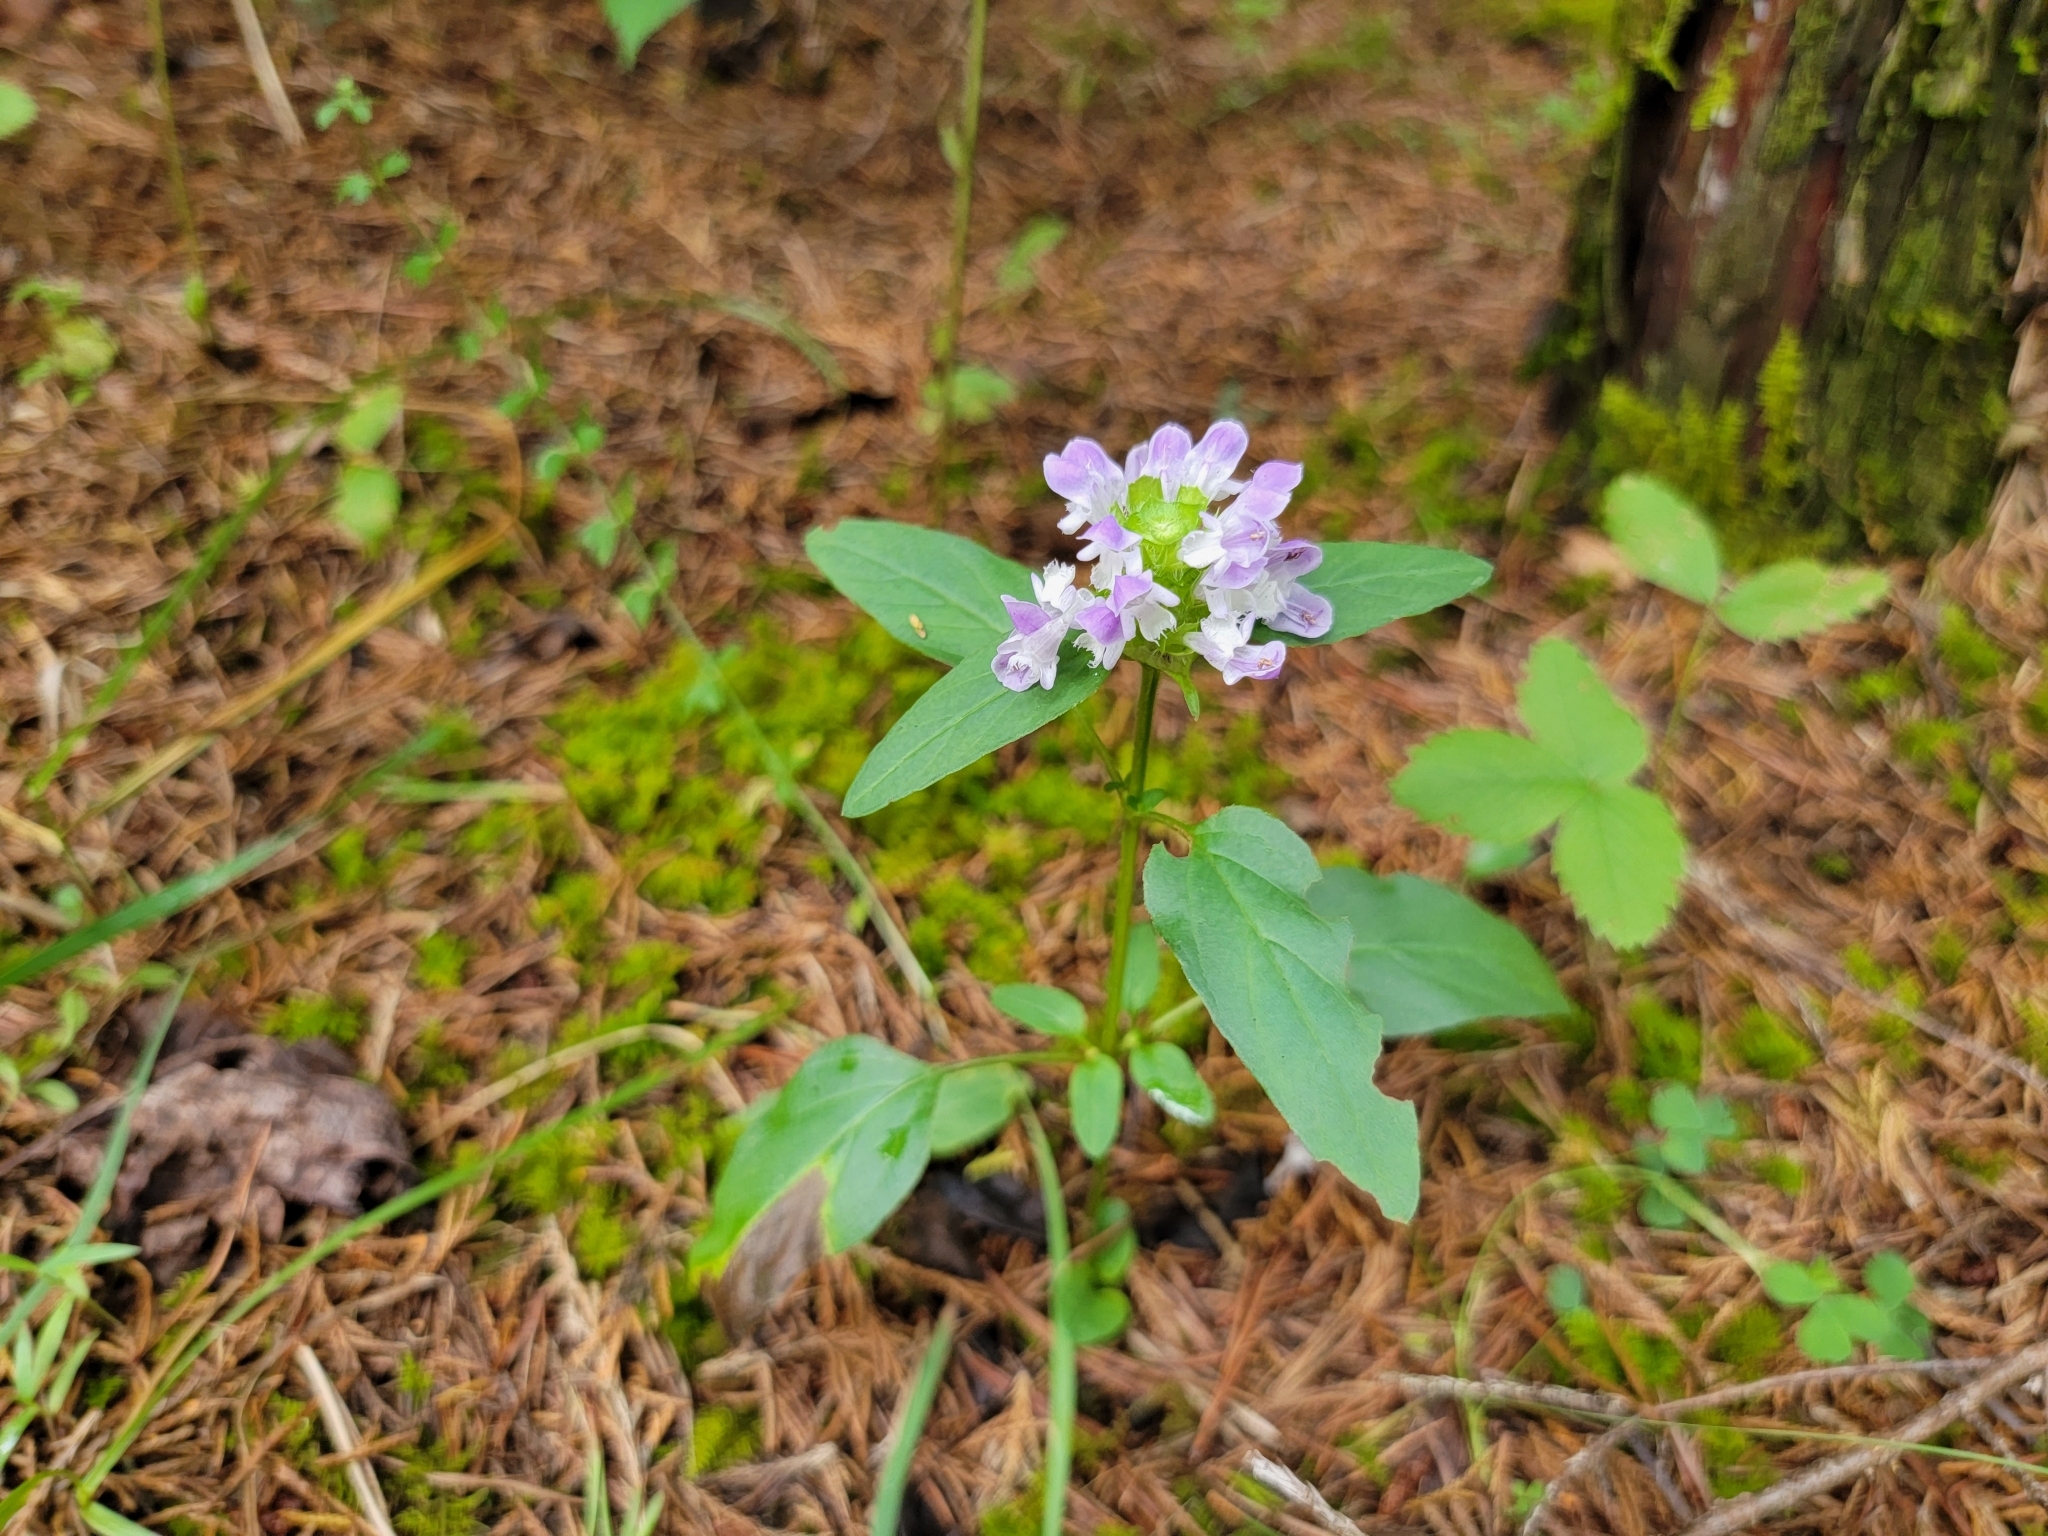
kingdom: Plantae
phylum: Tracheophyta
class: Magnoliopsida
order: Lamiales
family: Lamiaceae
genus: Prunella
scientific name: Prunella vulgaris
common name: Heal-all
